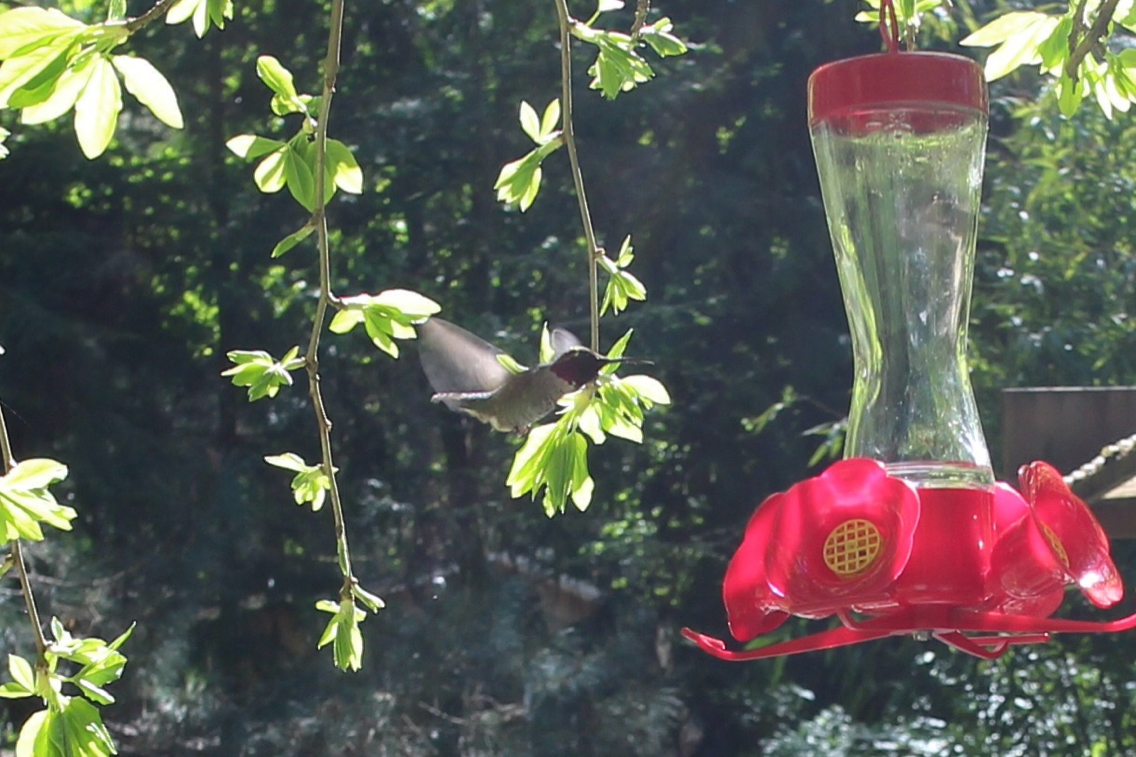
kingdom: Animalia
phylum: Chordata
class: Aves
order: Apodiformes
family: Trochilidae
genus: Calypte
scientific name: Calypte anna
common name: Anna's hummingbird
